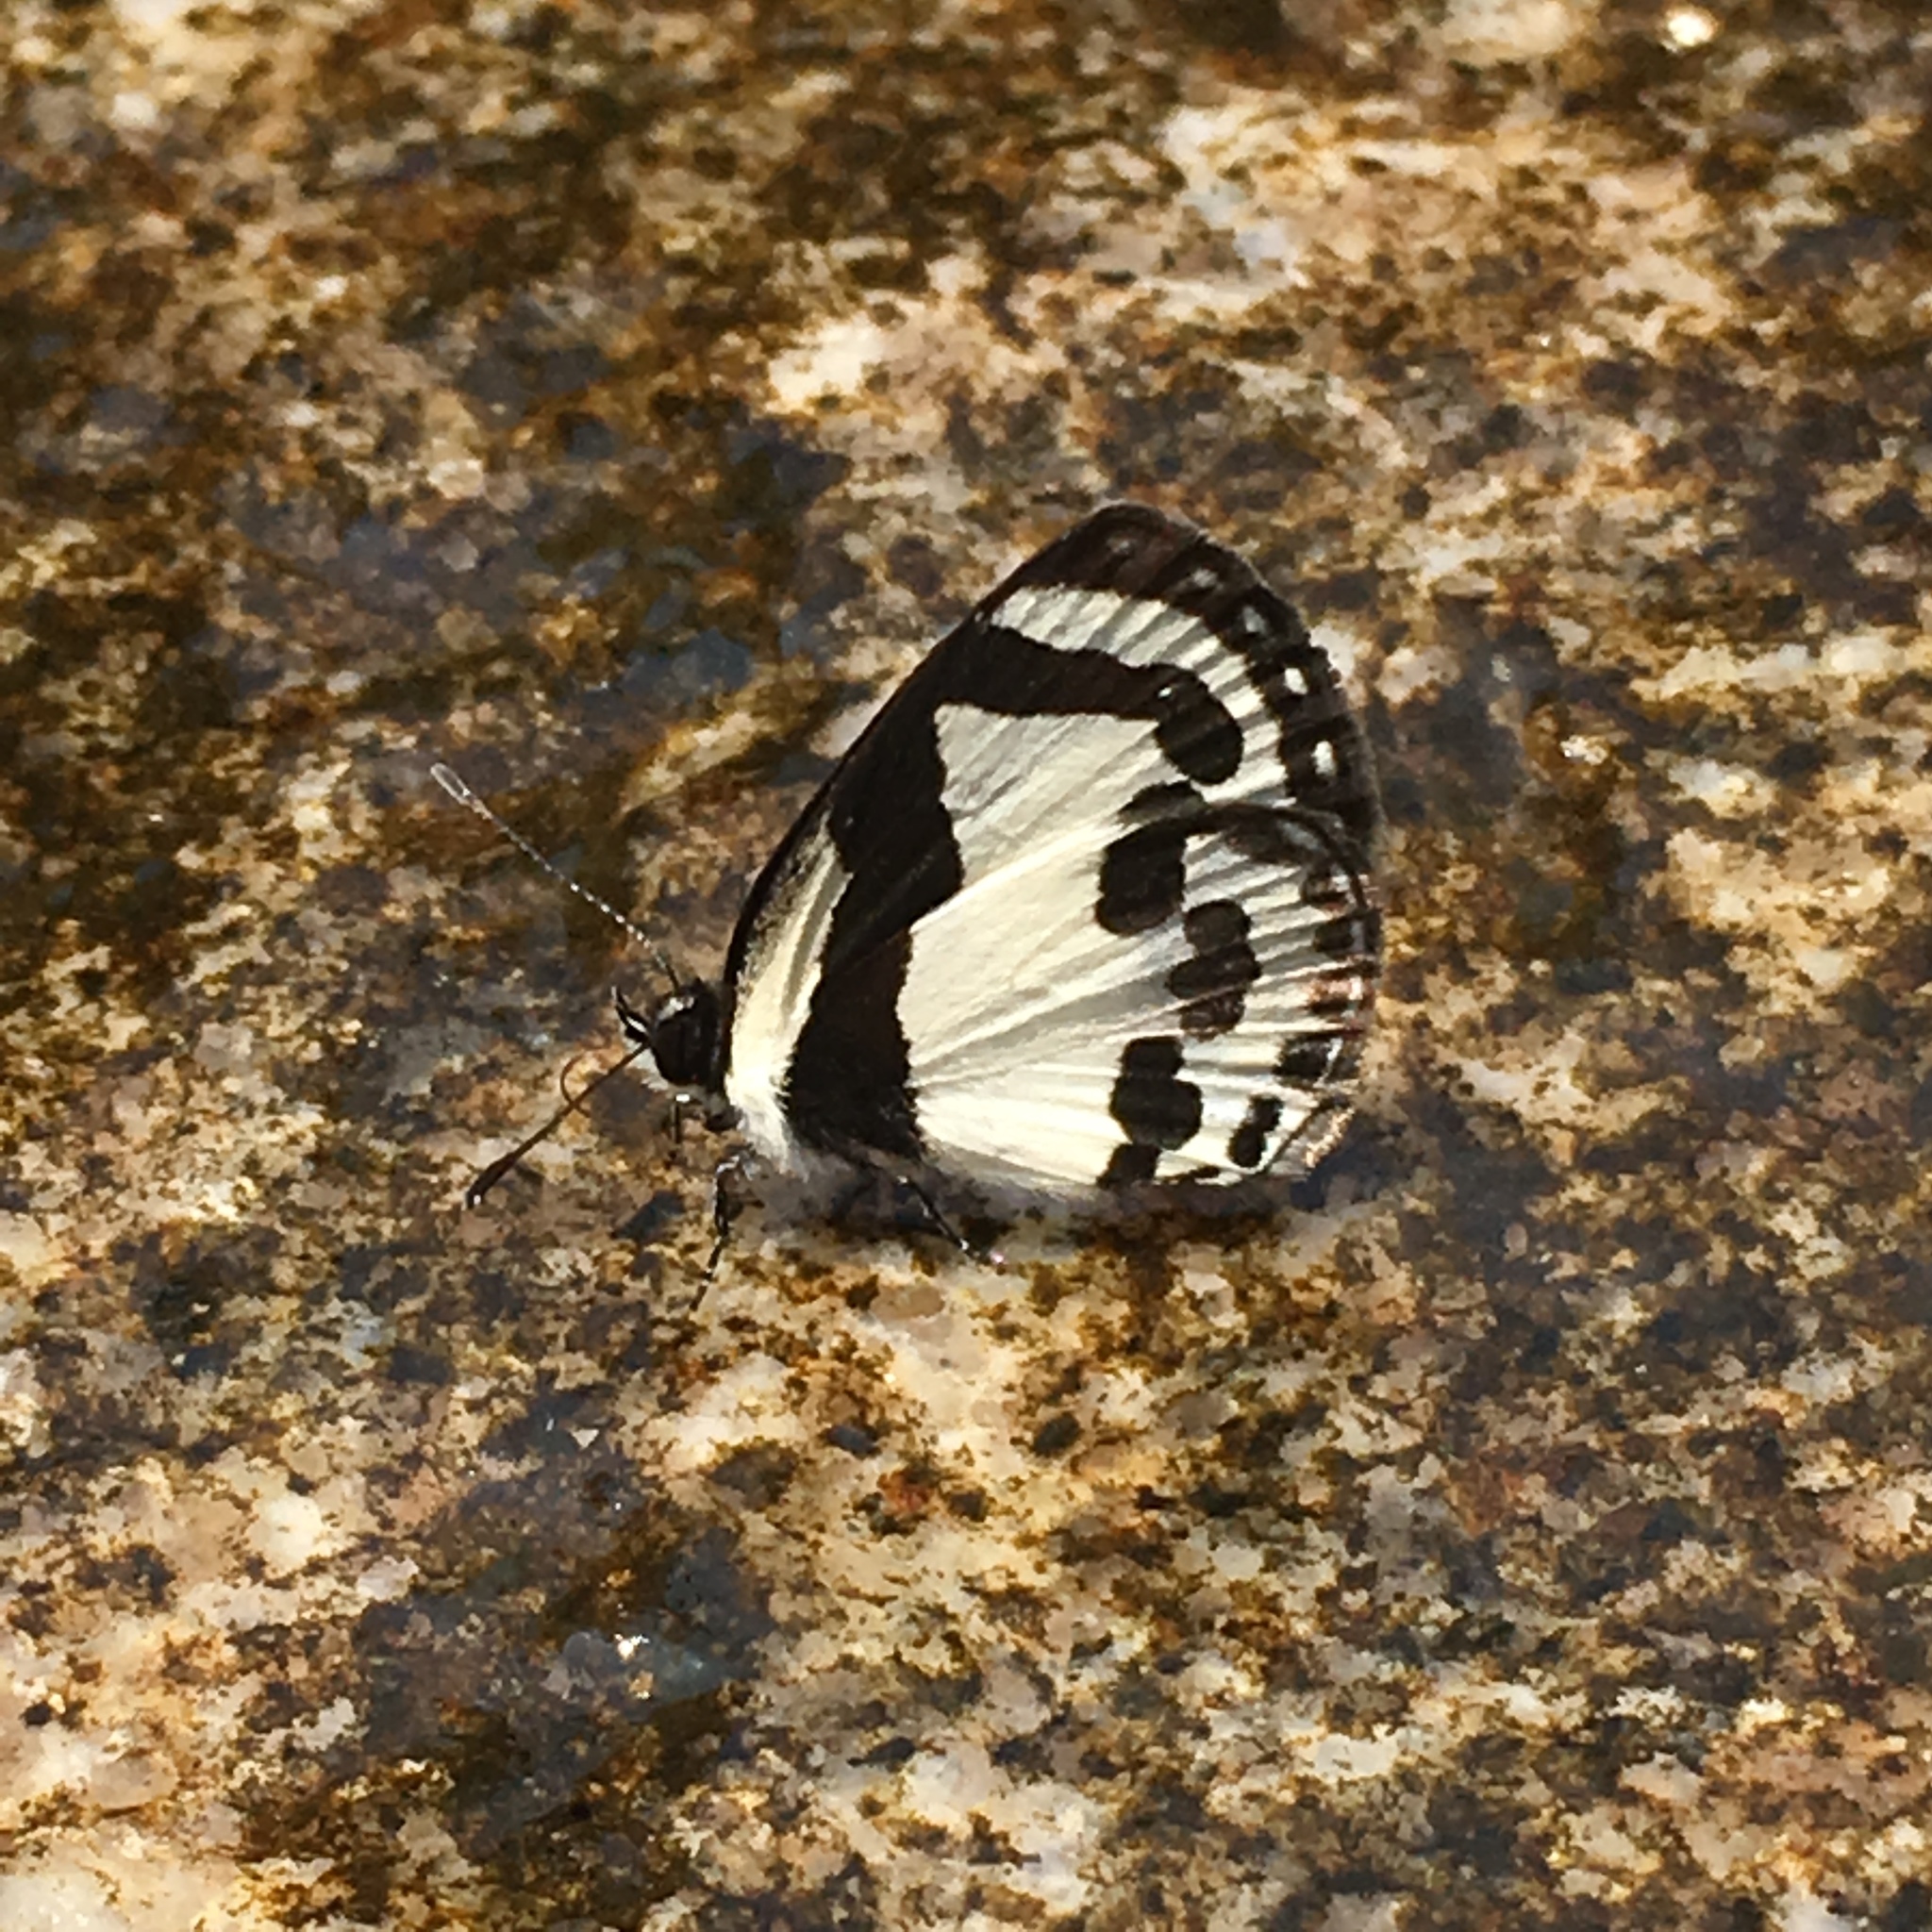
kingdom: Animalia
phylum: Arthropoda
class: Insecta
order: Lepidoptera
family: Lycaenidae
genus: Caleta
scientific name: Caleta roxus
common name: Straight pierrot
